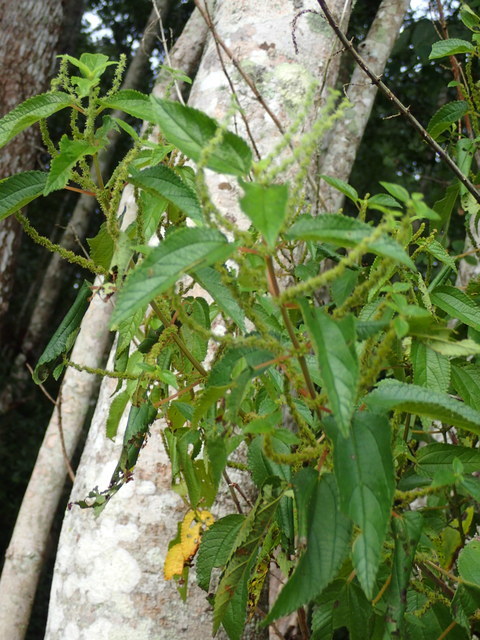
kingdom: Plantae
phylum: Tracheophyta
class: Magnoliopsida
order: Rosales
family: Urticaceae
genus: Boehmeria
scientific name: Boehmeria cylindrica
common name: Bog-hemp
